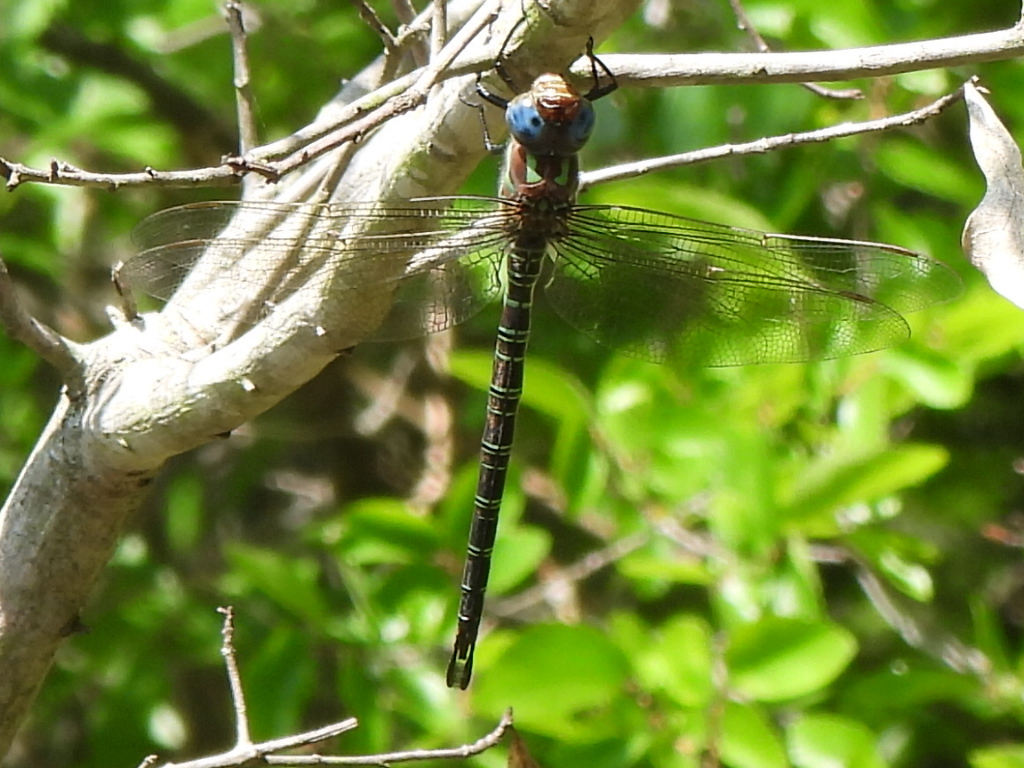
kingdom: Animalia
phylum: Arthropoda
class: Insecta
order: Odonata
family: Aeshnidae
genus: Epiaeschna
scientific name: Epiaeschna heros
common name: Swamp darner
